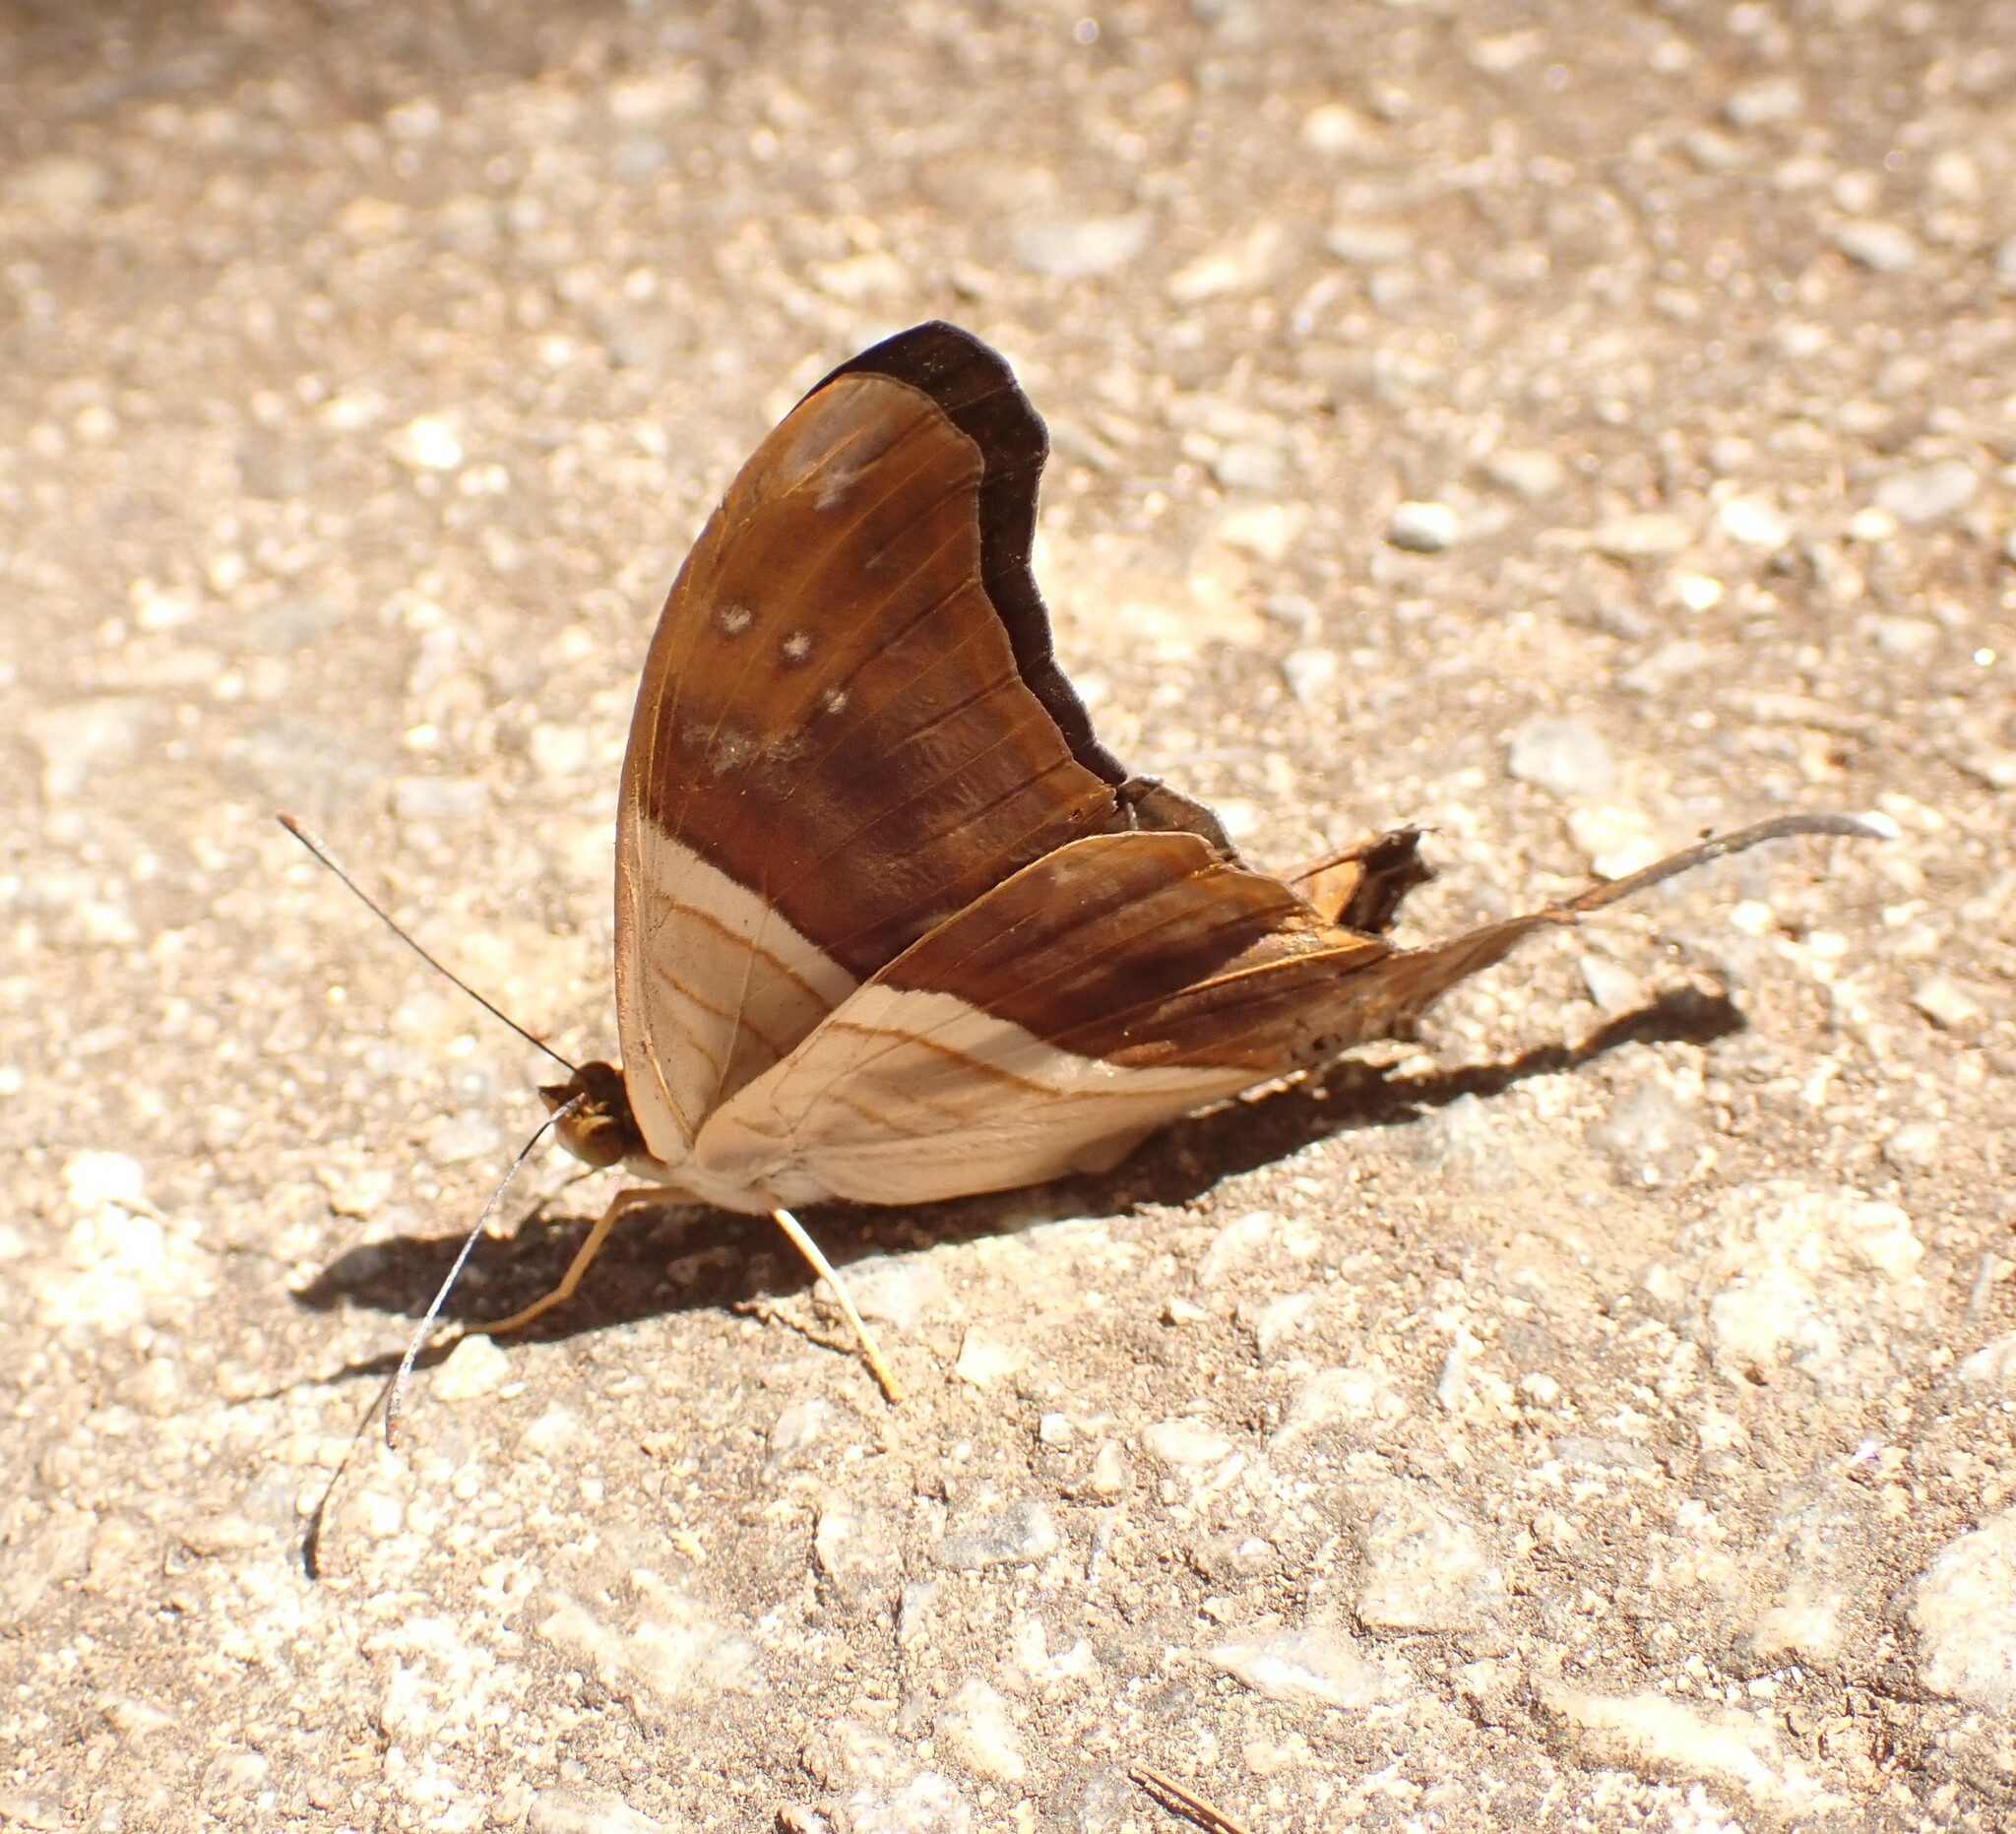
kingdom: Animalia
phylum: Arthropoda
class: Insecta
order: Lepidoptera
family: Nymphalidae
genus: Marpesia
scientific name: Marpesia chiron
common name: Many-banded daggerwing
